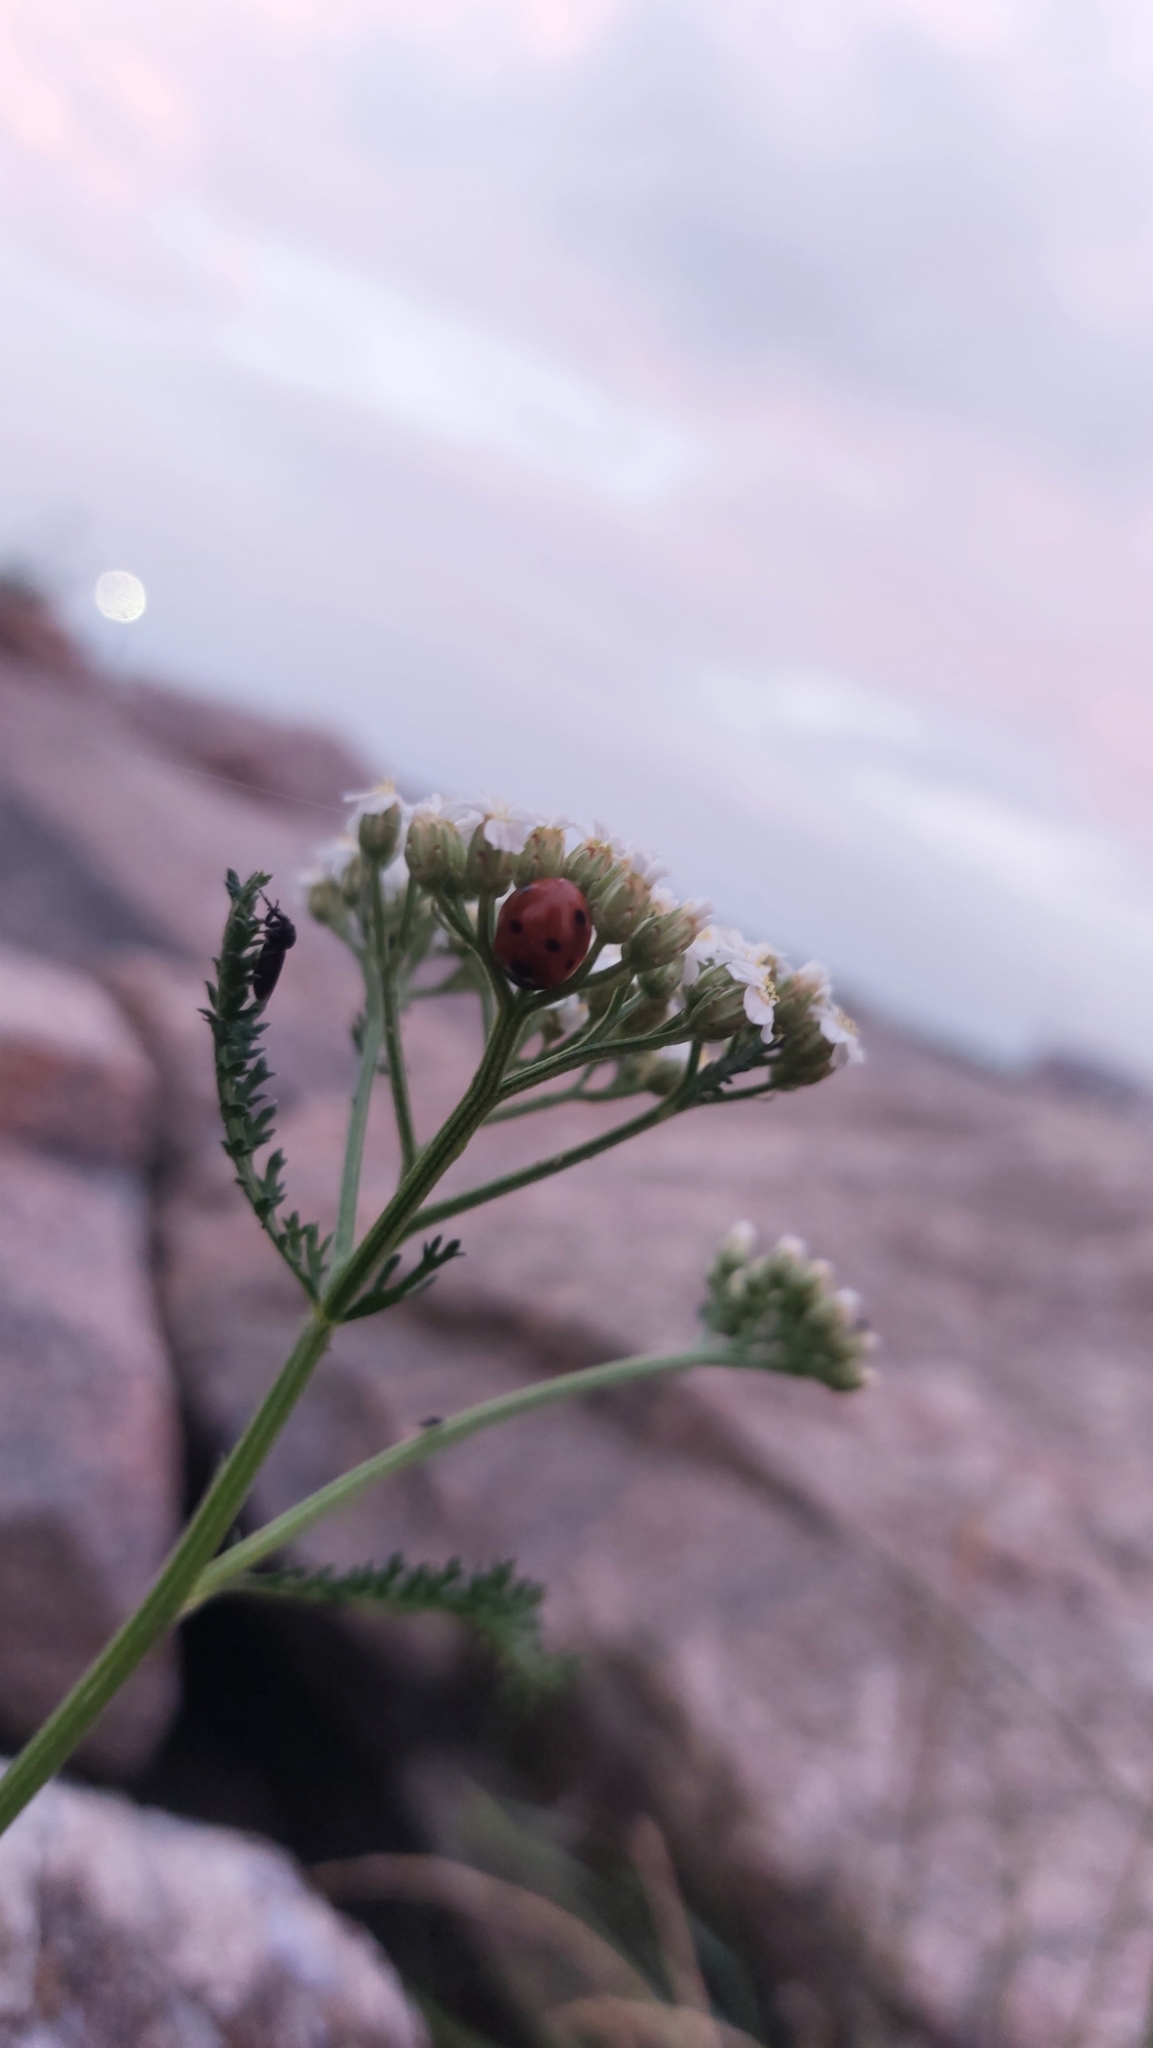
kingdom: Animalia
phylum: Arthropoda
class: Insecta
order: Coleoptera
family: Coccinellidae
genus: Coccinella
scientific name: Coccinella septempunctata
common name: Sevenspotted lady beetle
